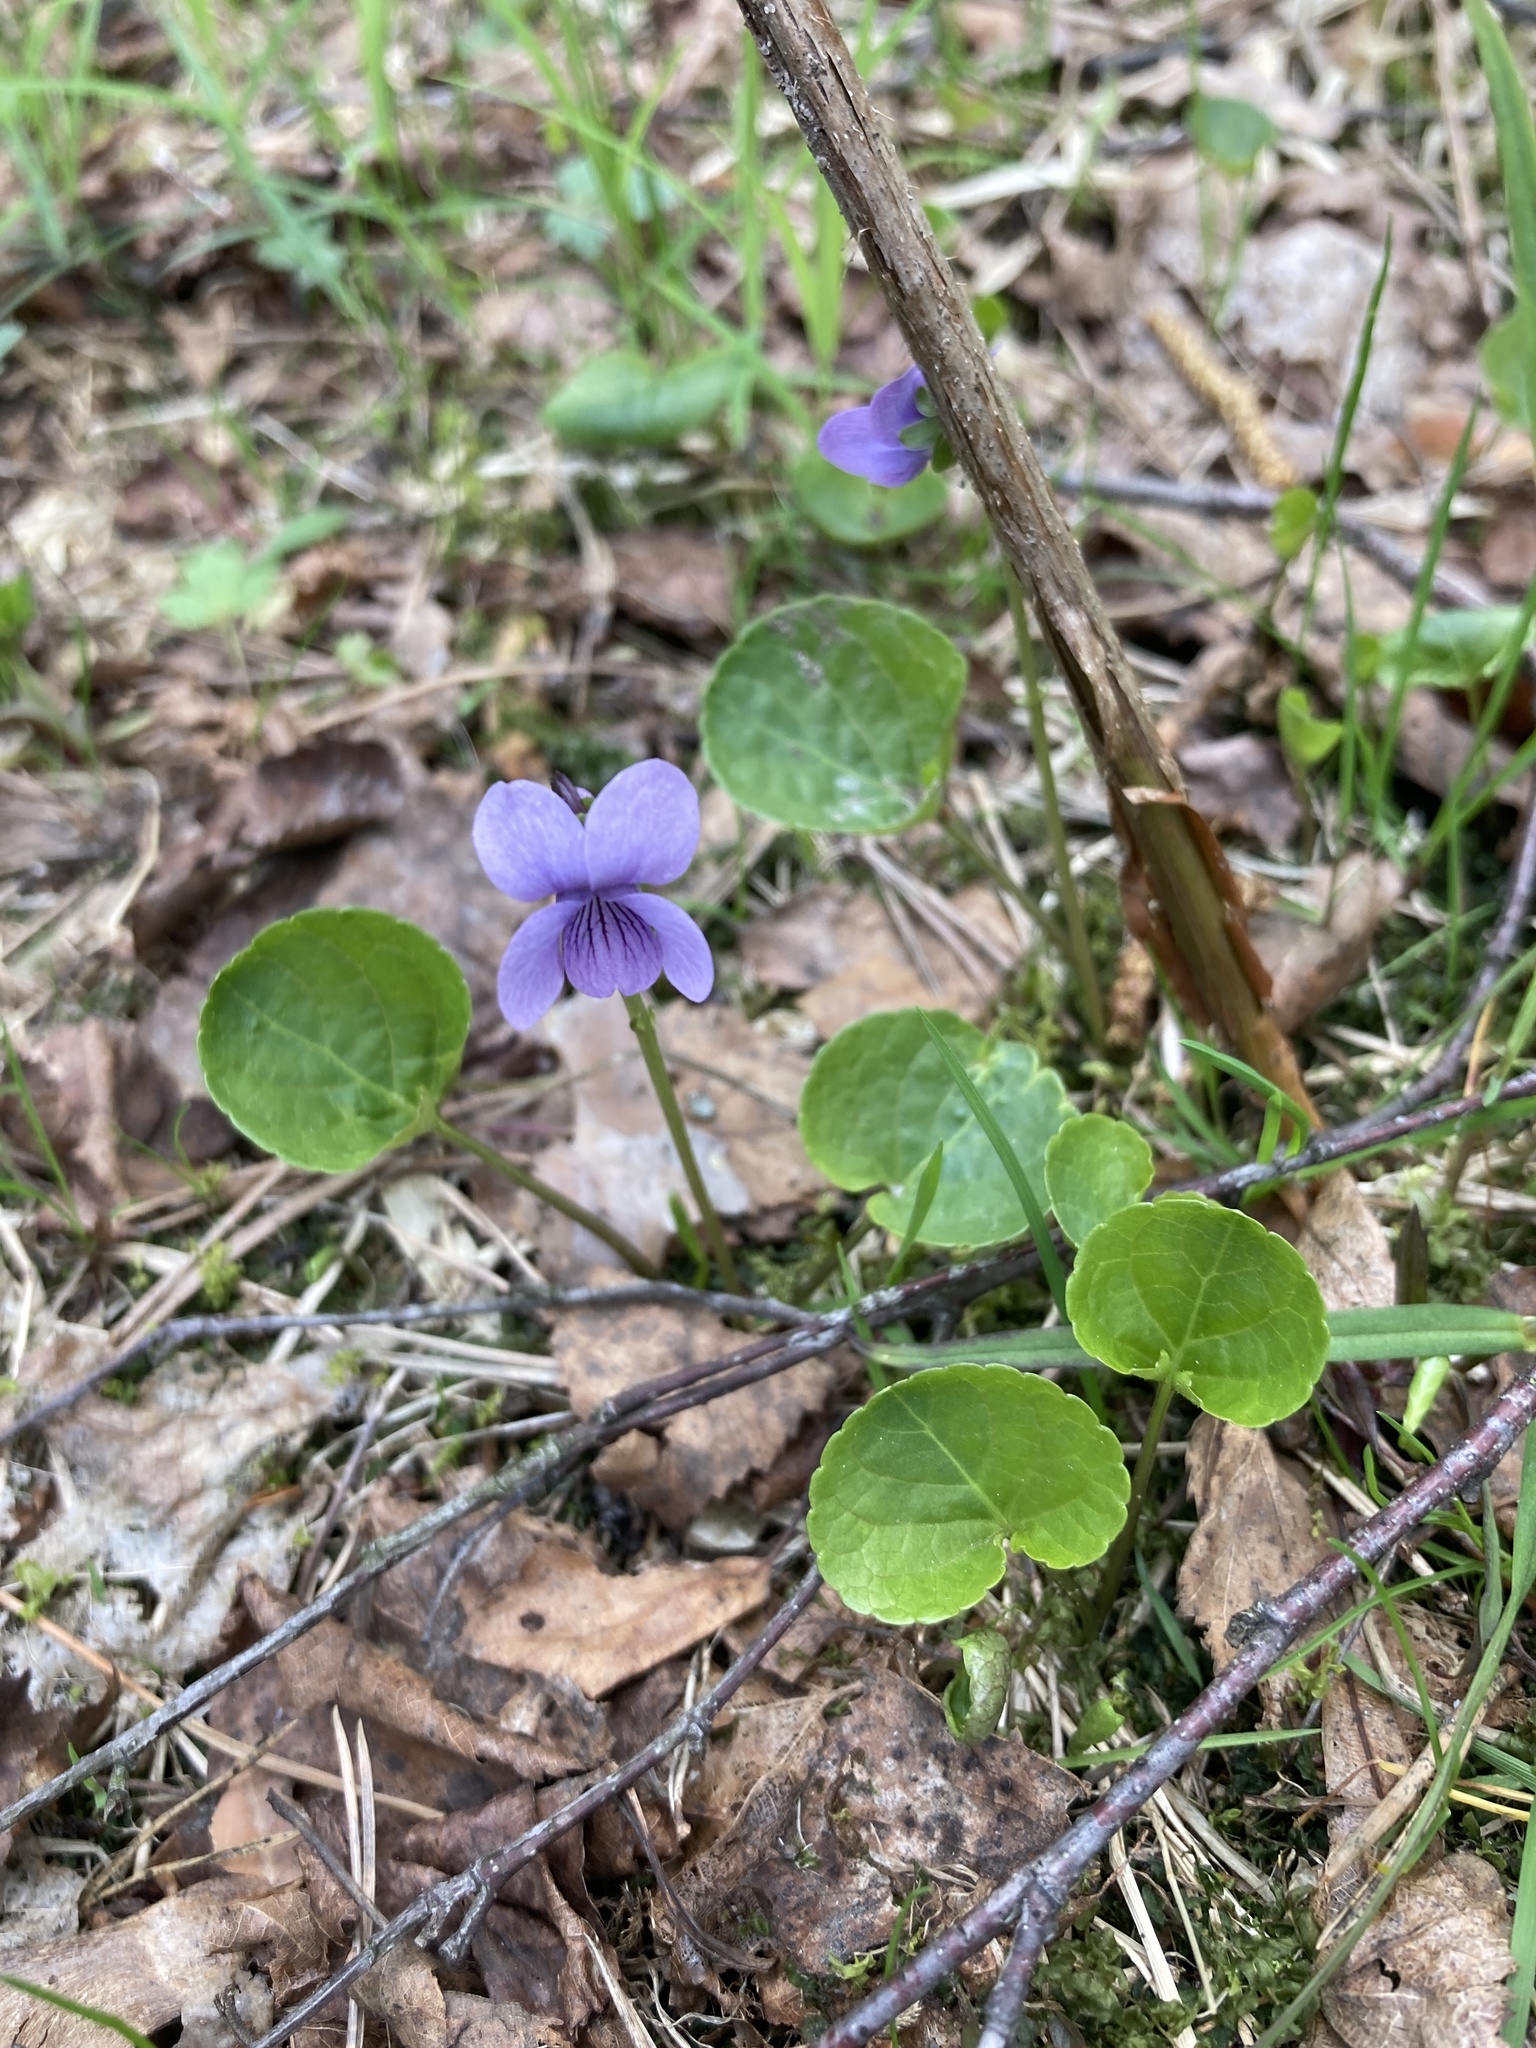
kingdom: Plantae
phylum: Tracheophyta
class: Magnoliopsida
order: Malpighiales
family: Violaceae
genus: Viola
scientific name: Viola palustris
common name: Marsh violet
